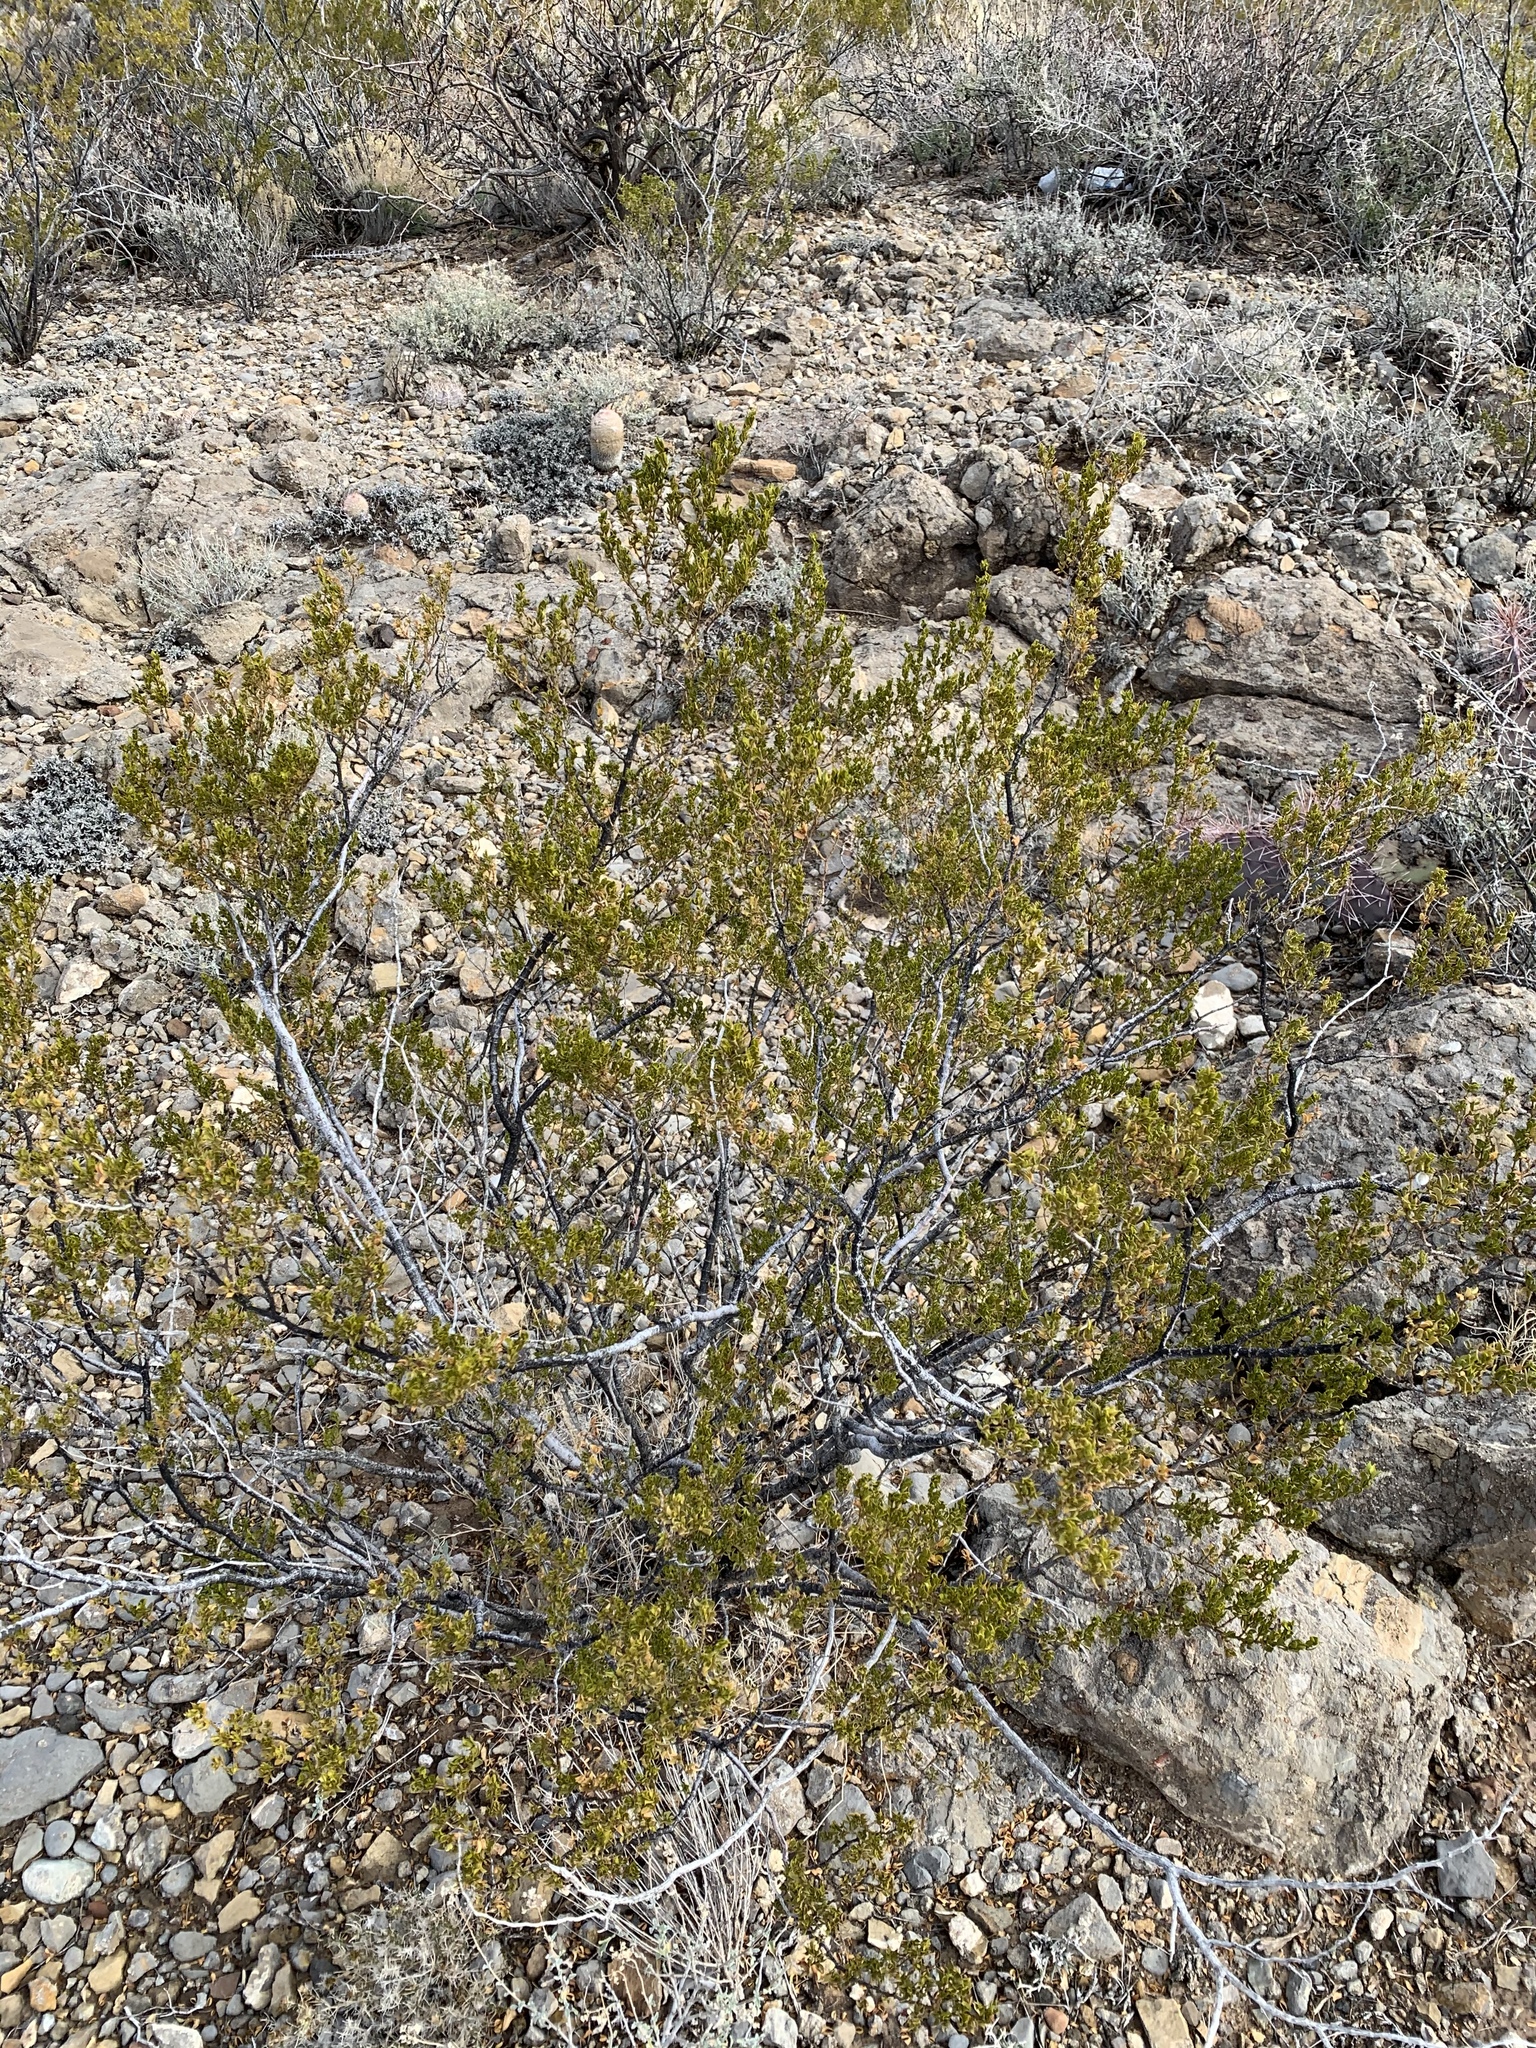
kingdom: Plantae
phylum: Tracheophyta
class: Magnoliopsida
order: Zygophyllales
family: Zygophyllaceae
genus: Larrea
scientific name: Larrea tridentata
